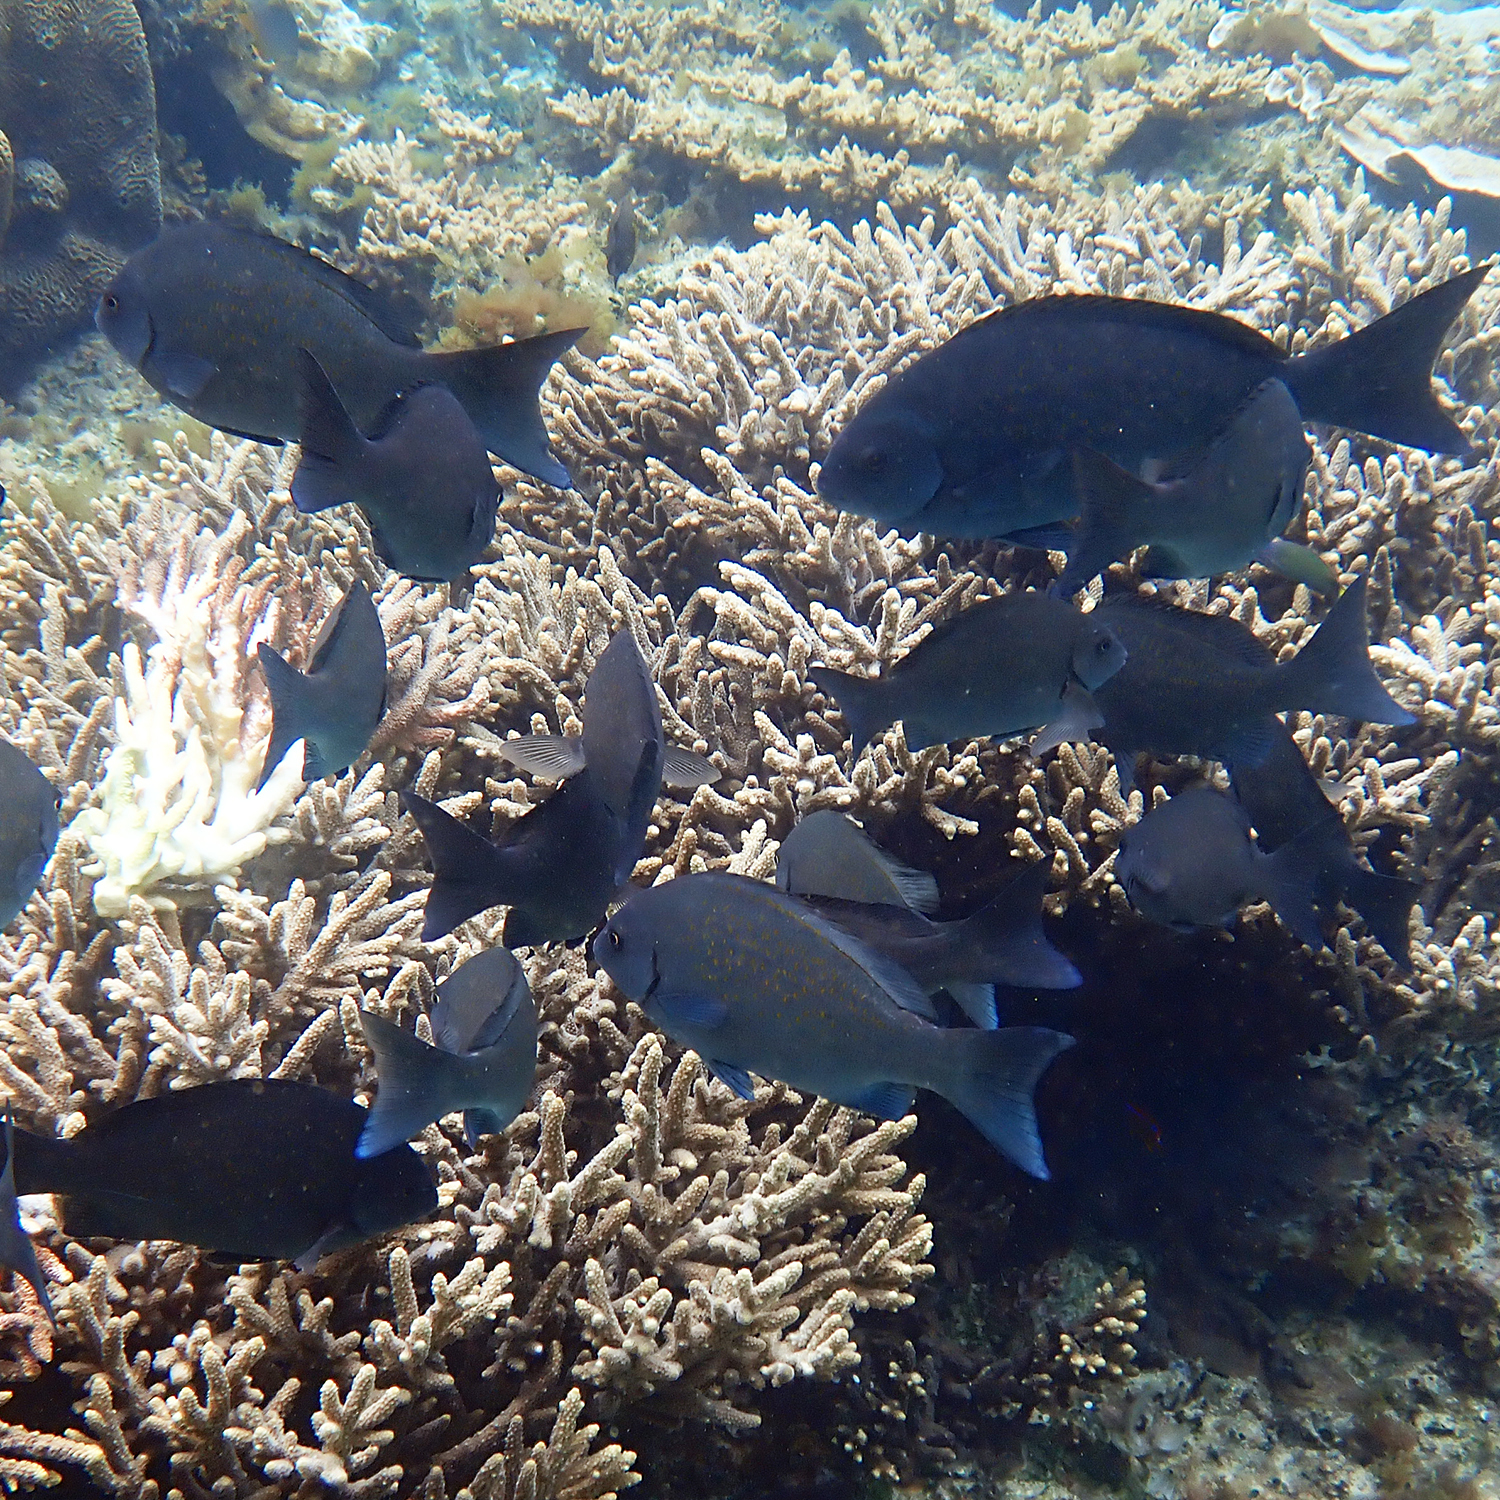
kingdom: Animalia
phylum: Chordata
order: Perciformes
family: Kyphosidae
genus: Girella
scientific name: Girella cyanea
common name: Bluefish
